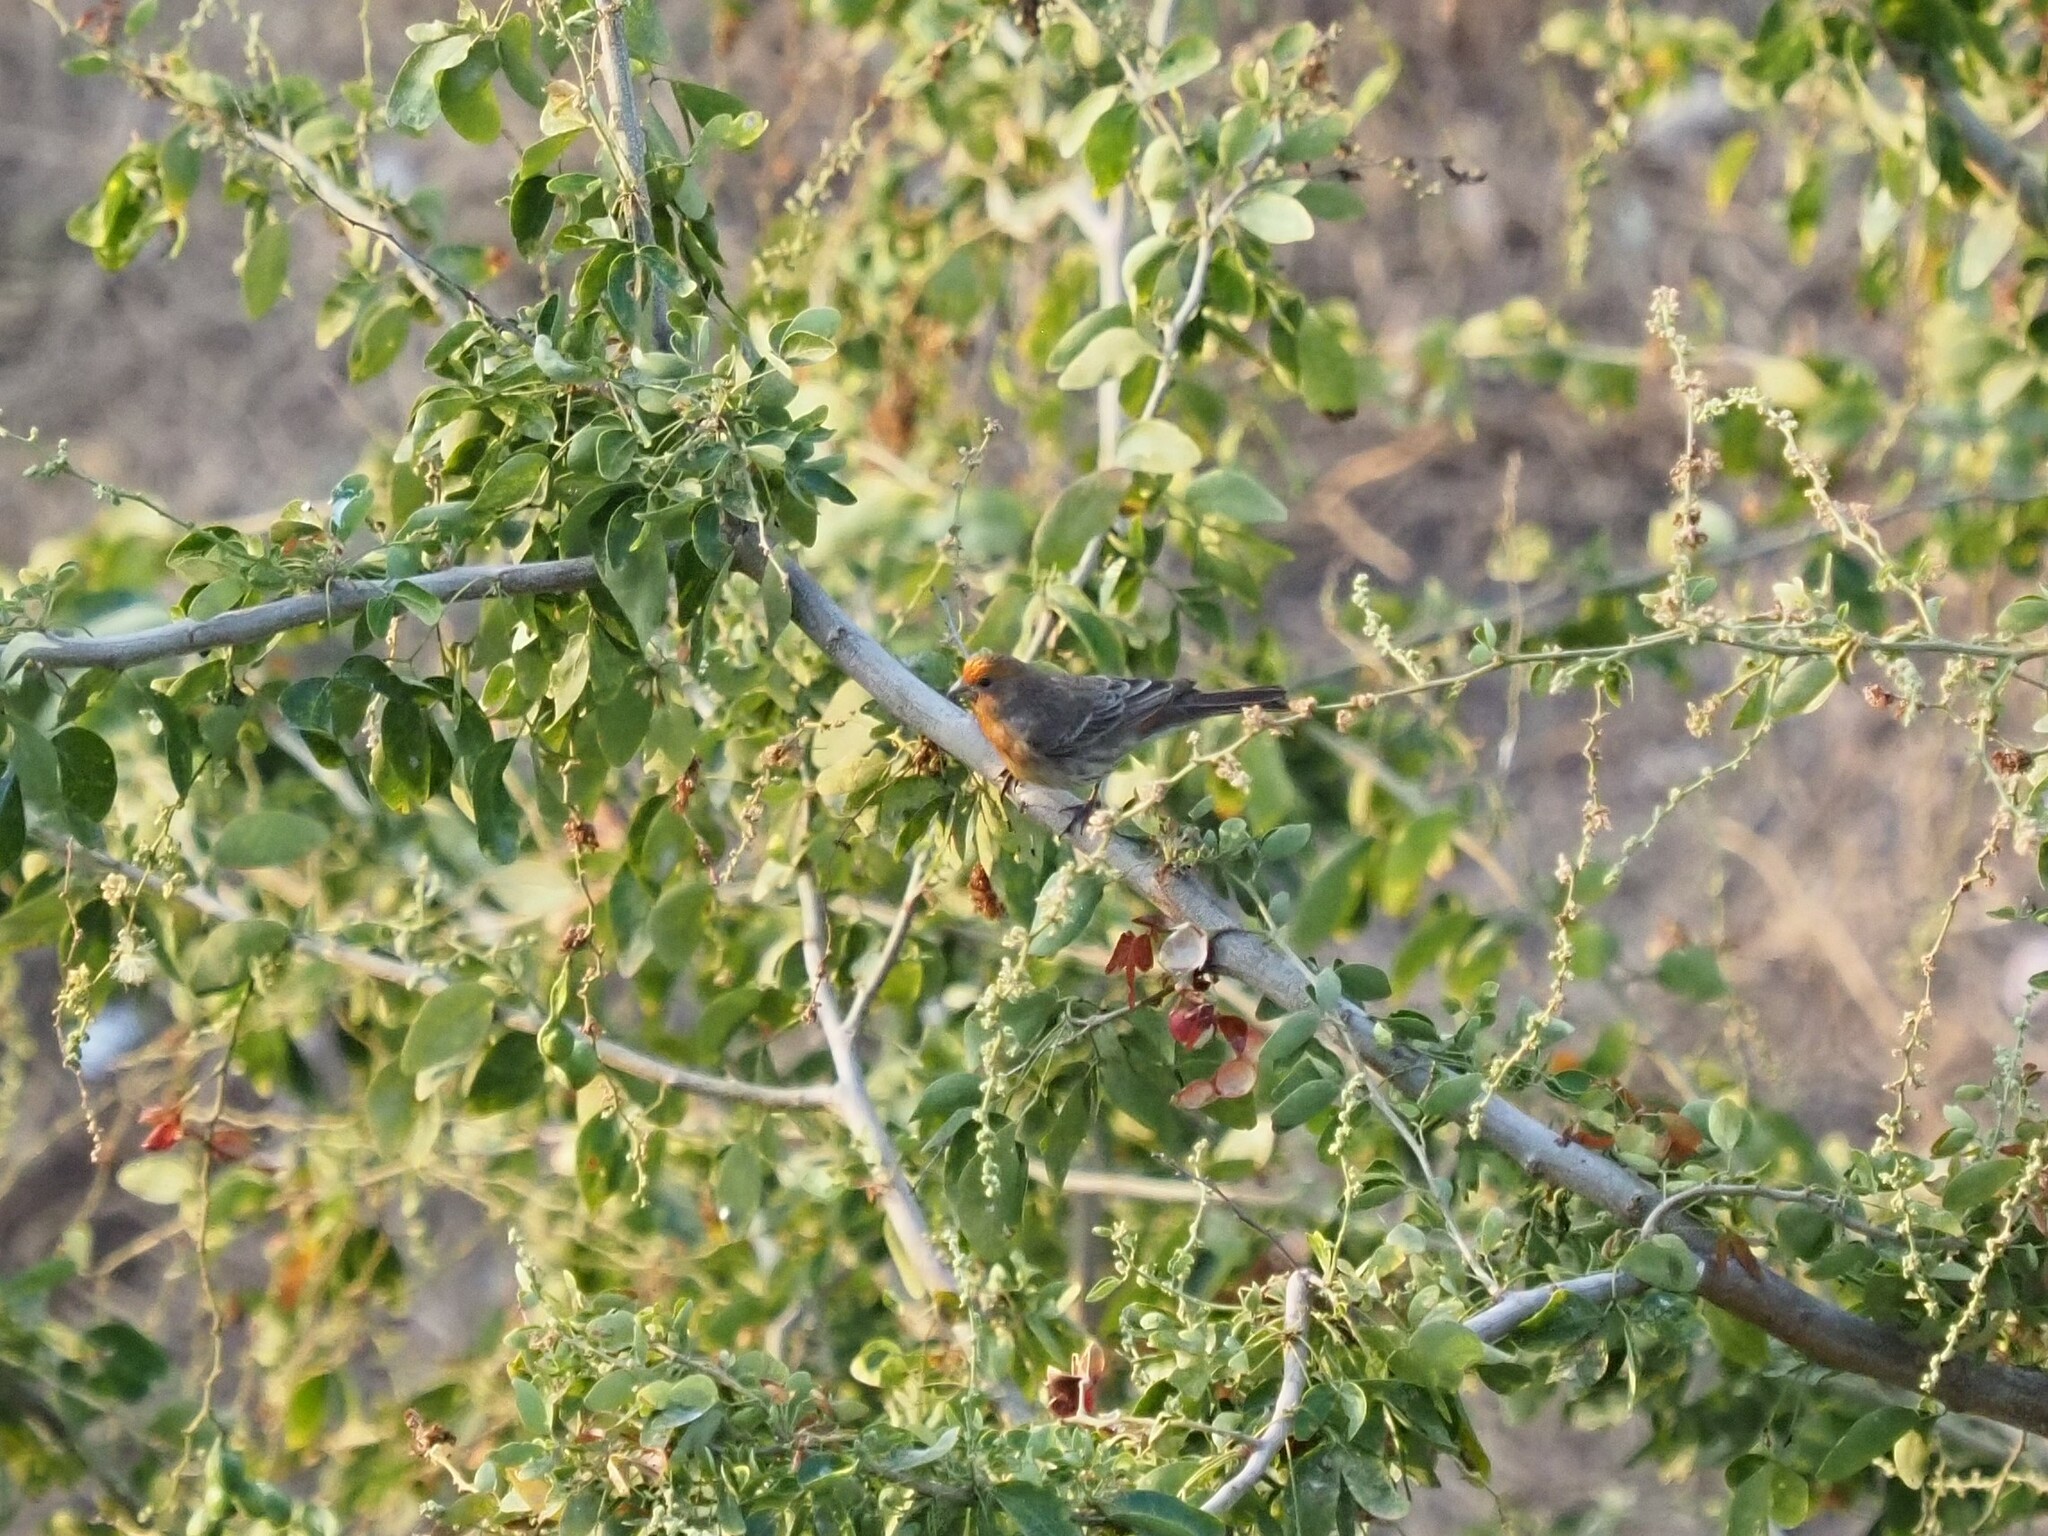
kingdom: Animalia
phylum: Chordata
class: Aves
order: Passeriformes
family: Fringillidae
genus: Haemorhous
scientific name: Haemorhous mexicanus
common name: House finch
